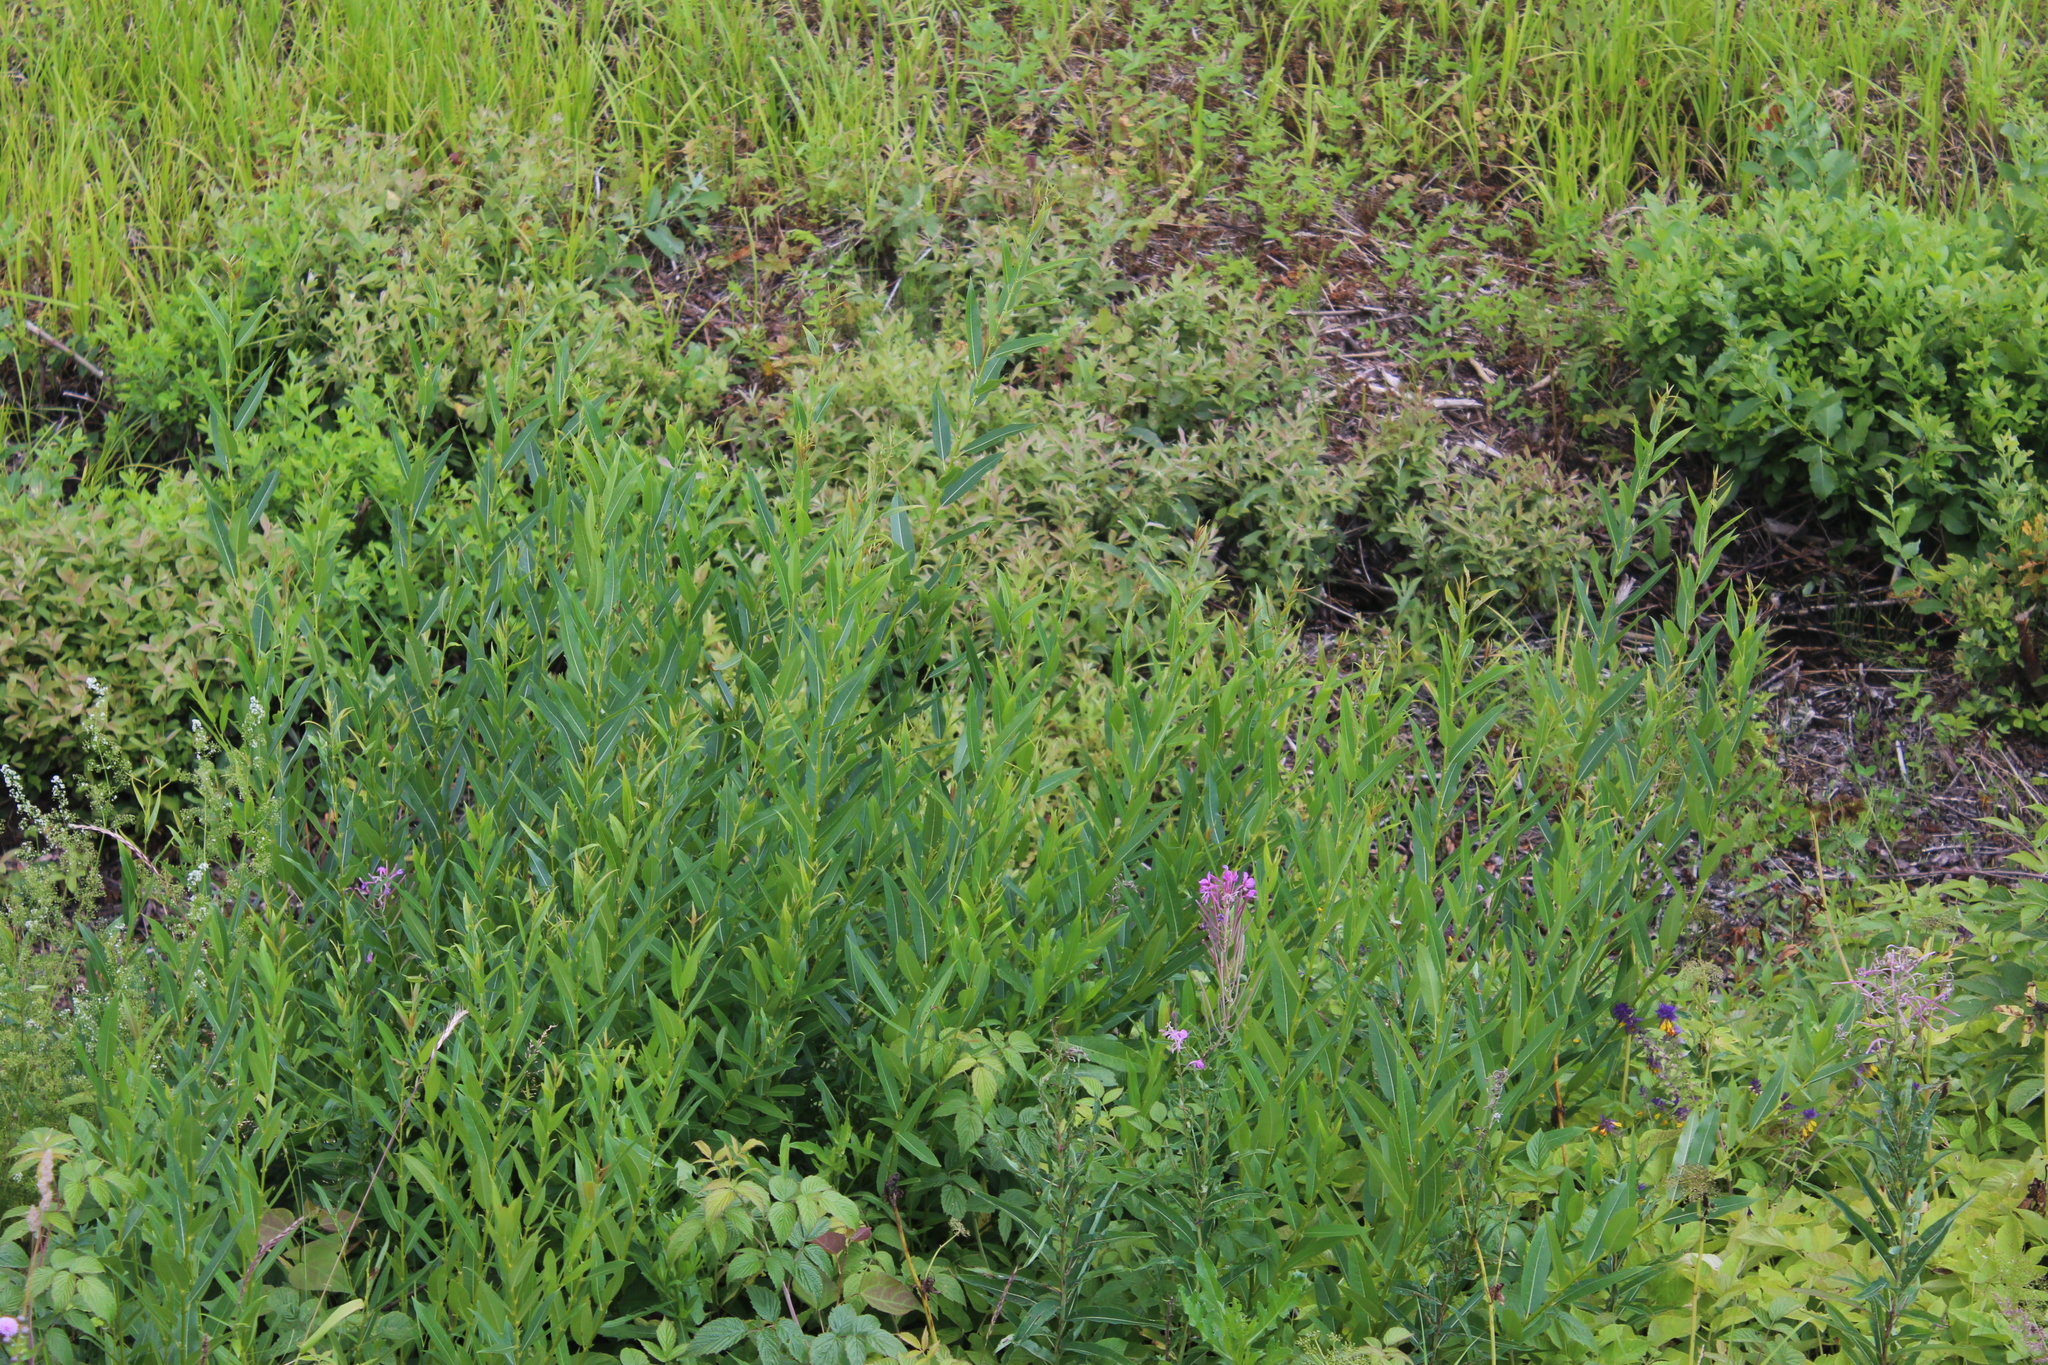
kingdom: Plantae
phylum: Tracheophyta
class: Magnoliopsida
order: Malpighiales
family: Salicaceae
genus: Salix
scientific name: Salix triandra
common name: Almond willow
